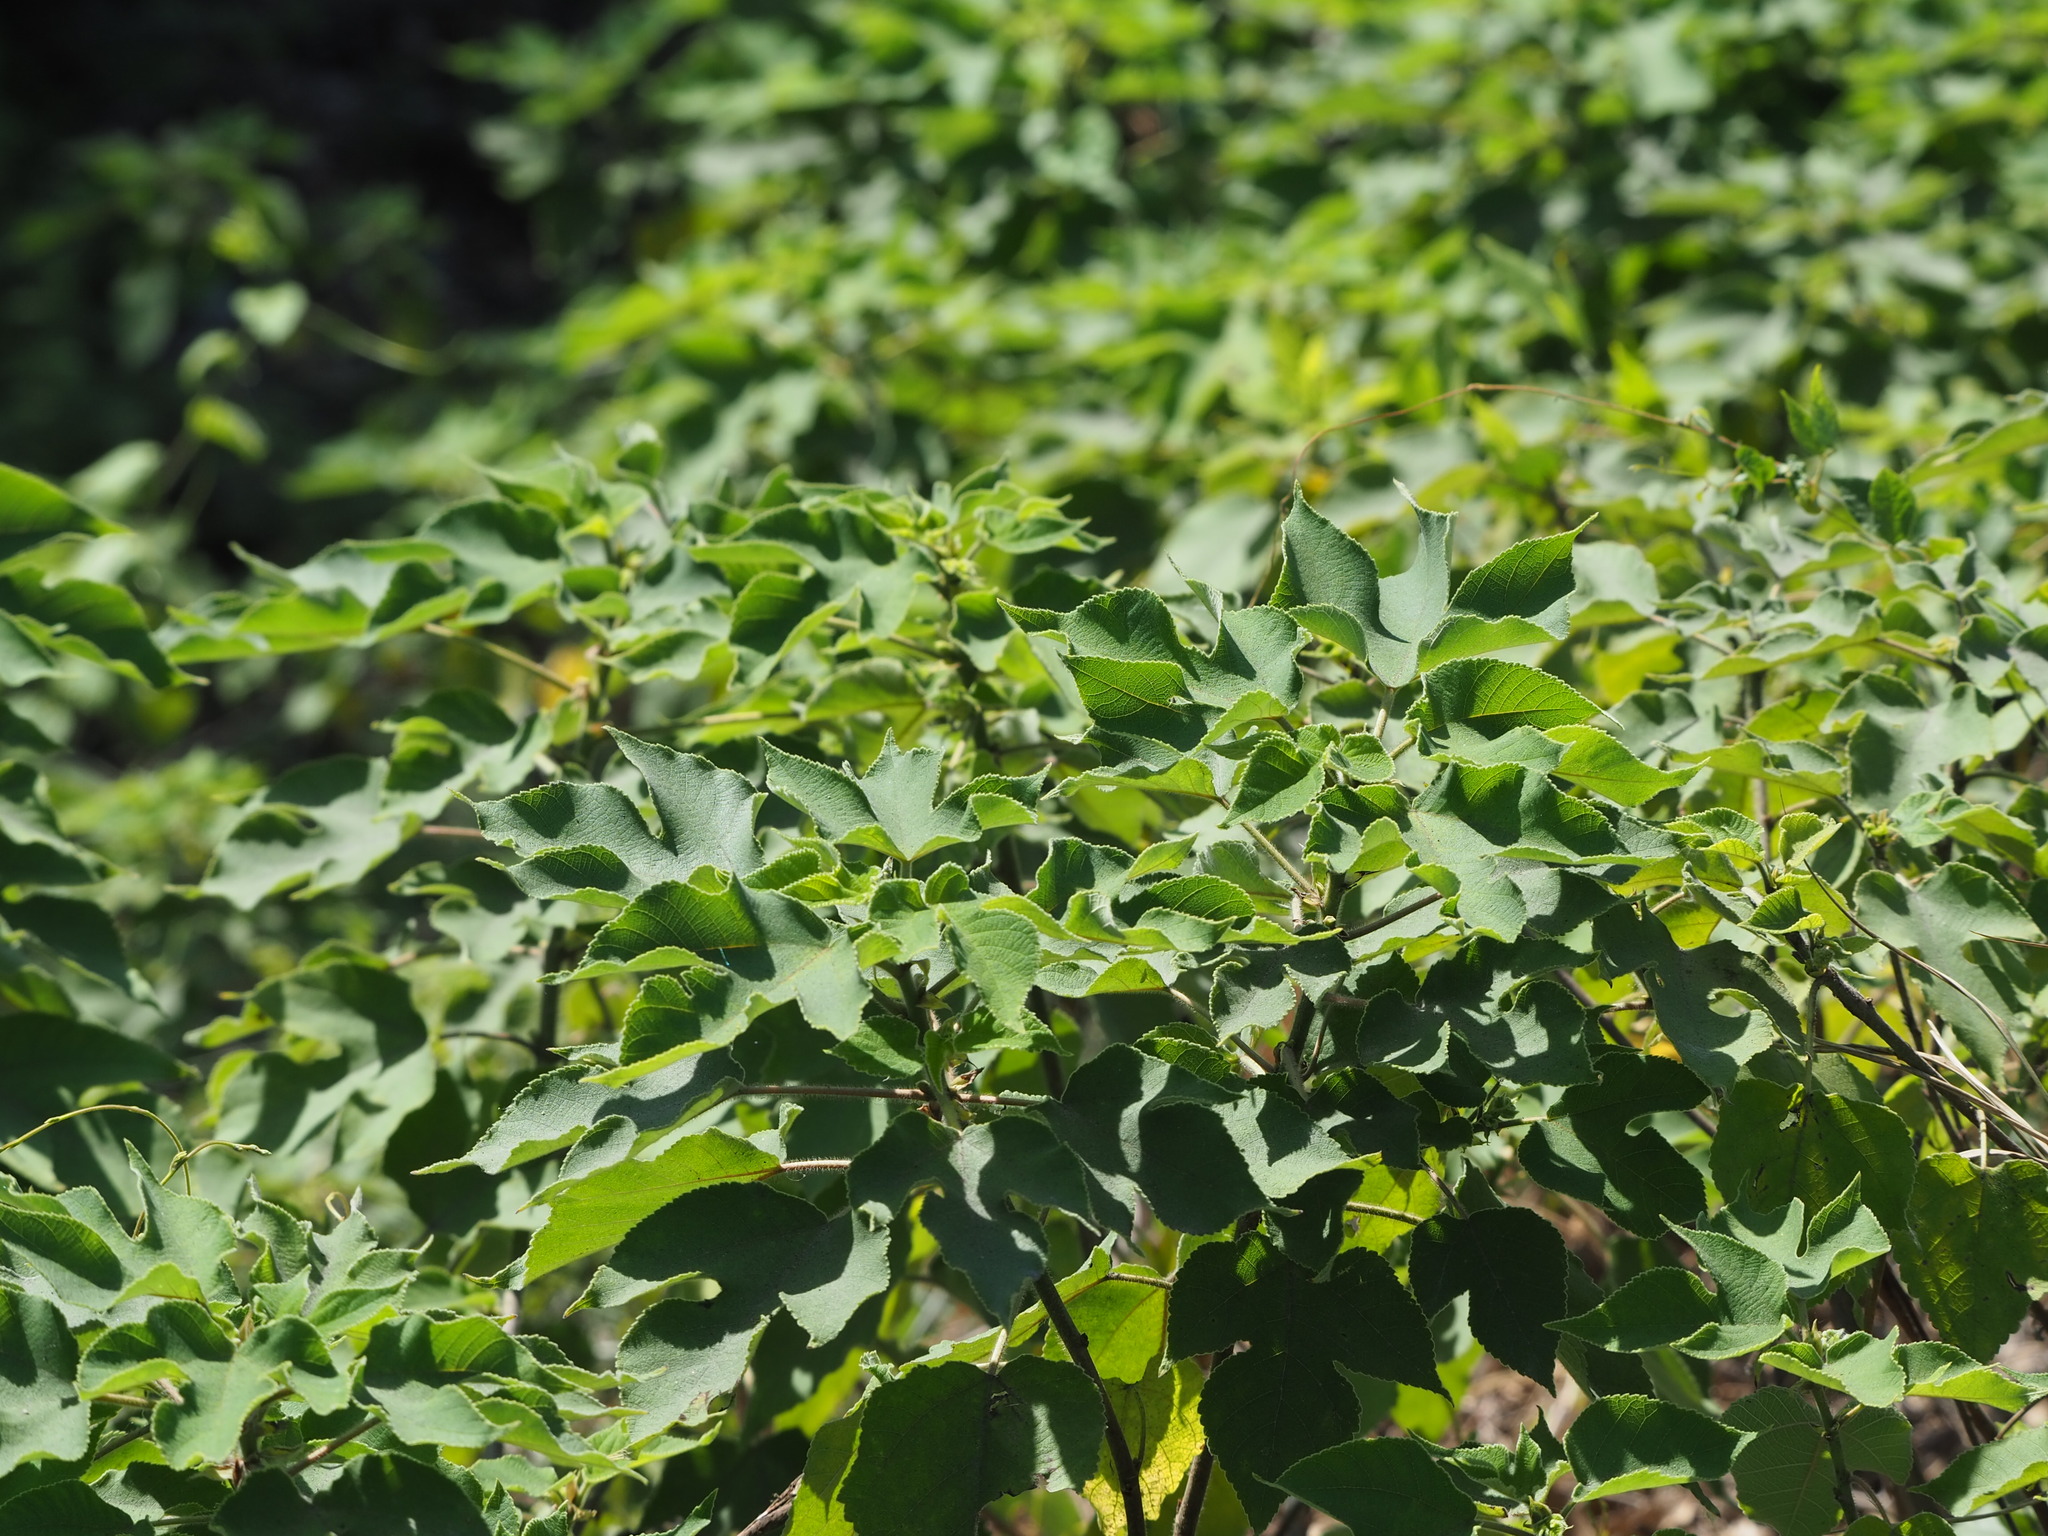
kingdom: Plantae
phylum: Tracheophyta
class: Magnoliopsida
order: Rosales
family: Moraceae
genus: Broussonetia
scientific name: Broussonetia papyrifera
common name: Paper mulberry
